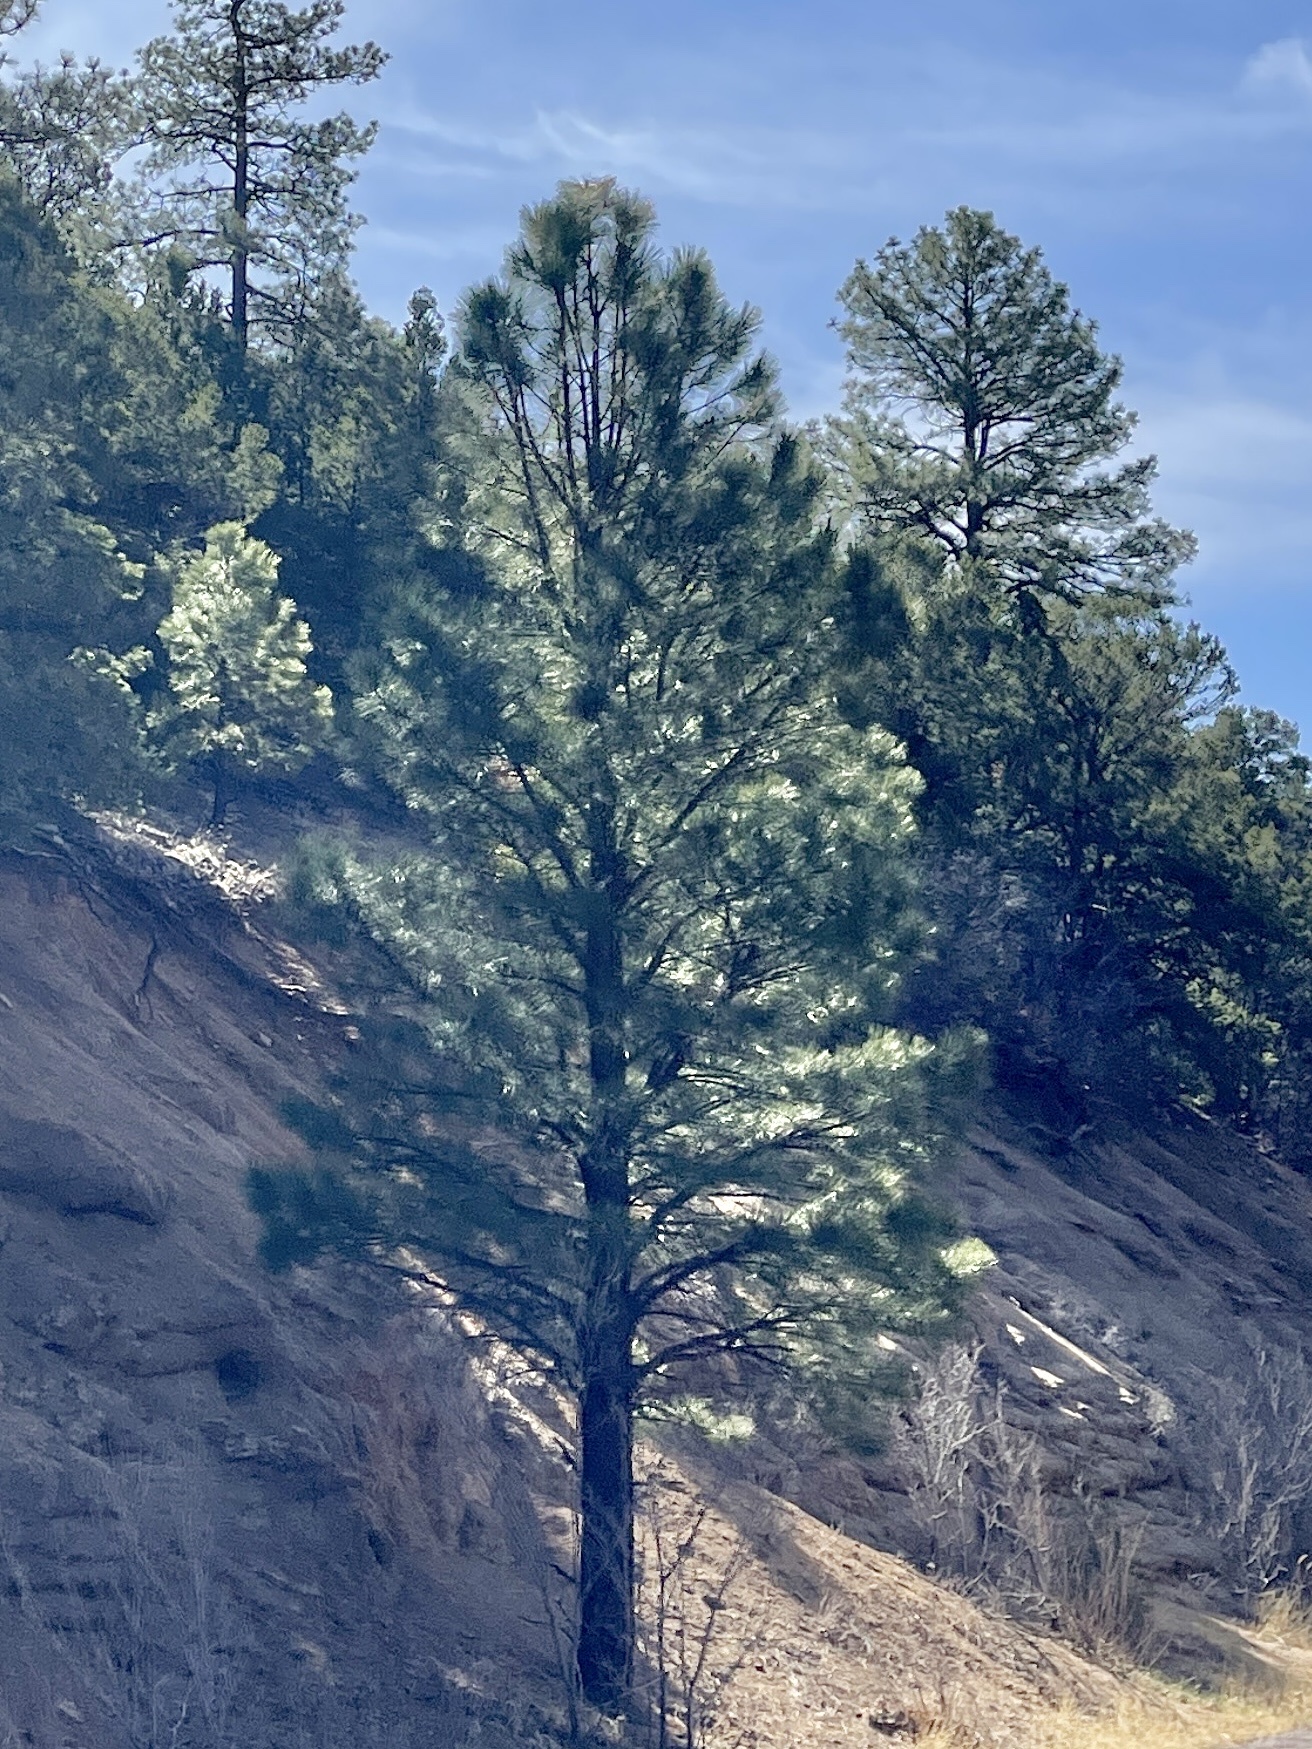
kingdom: Plantae
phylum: Tracheophyta
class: Pinopsida
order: Pinales
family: Pinaceae
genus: Pinus
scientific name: Pinus ponderosa
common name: Western yellow-pine
